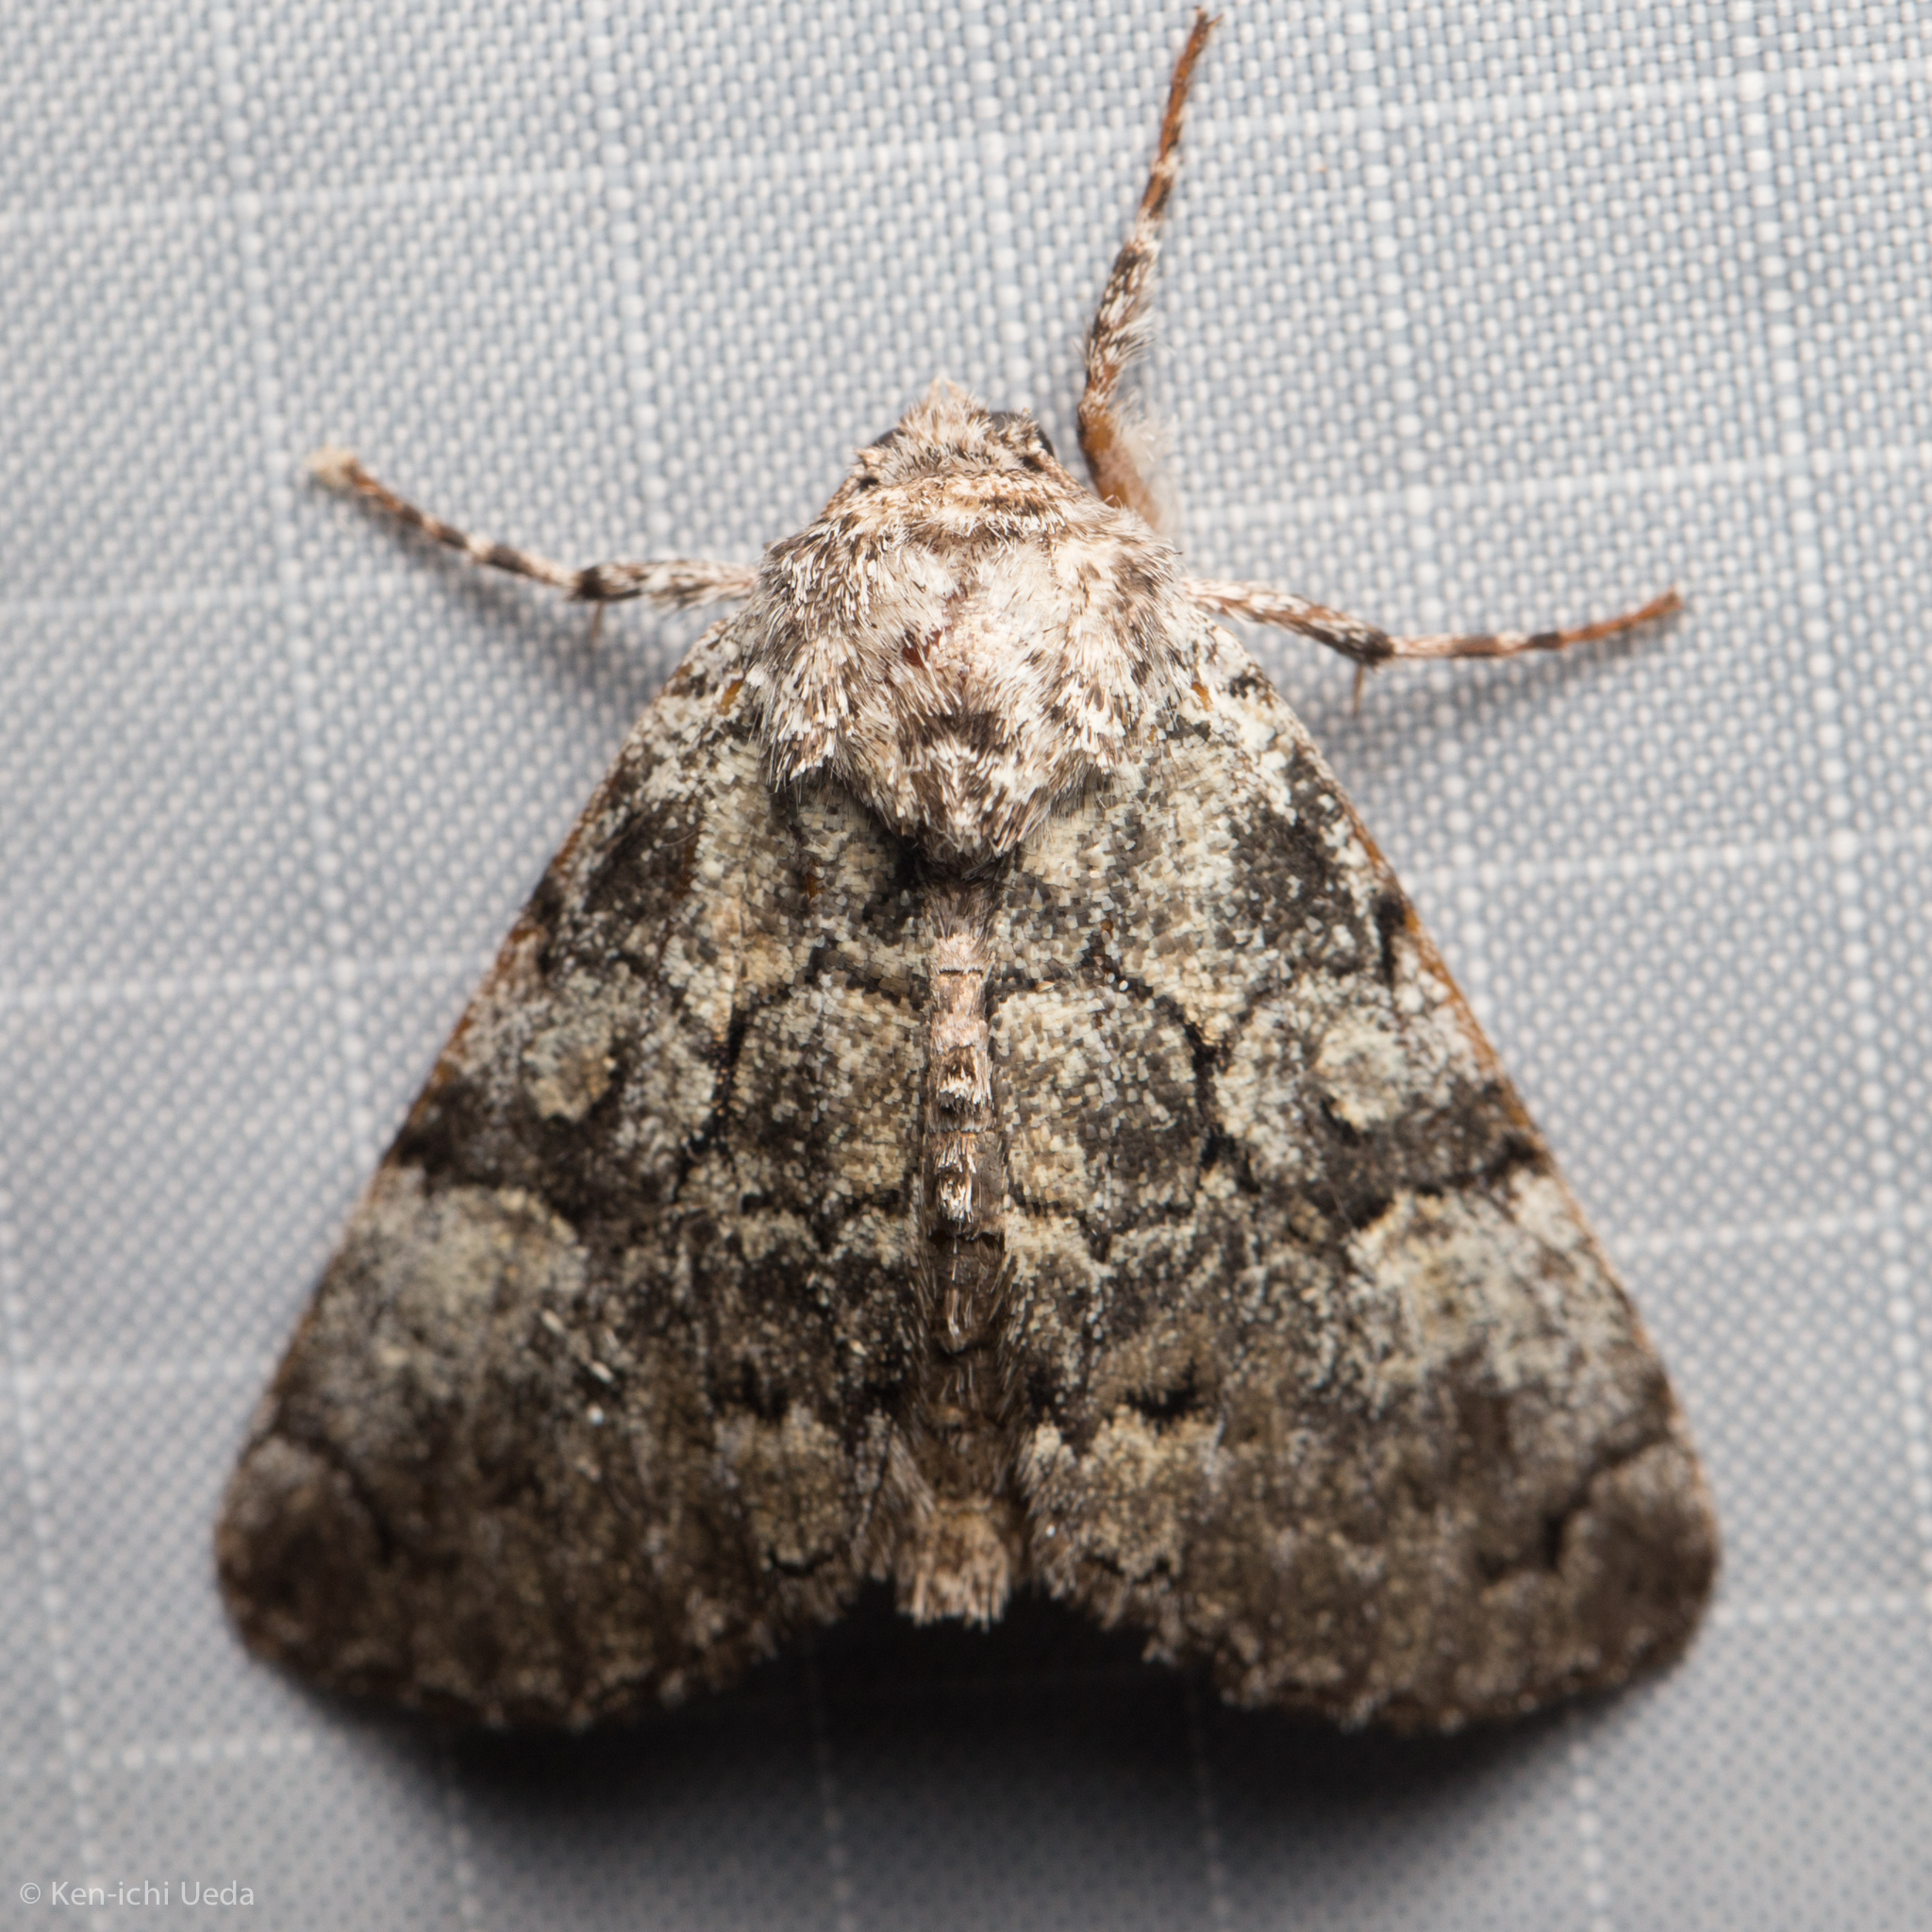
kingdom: Animalia
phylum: Arthropoda
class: Insecta
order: Lepidoptera
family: Noctuidae
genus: Charadra
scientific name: Charadra deridens
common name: Marbled tuffet
